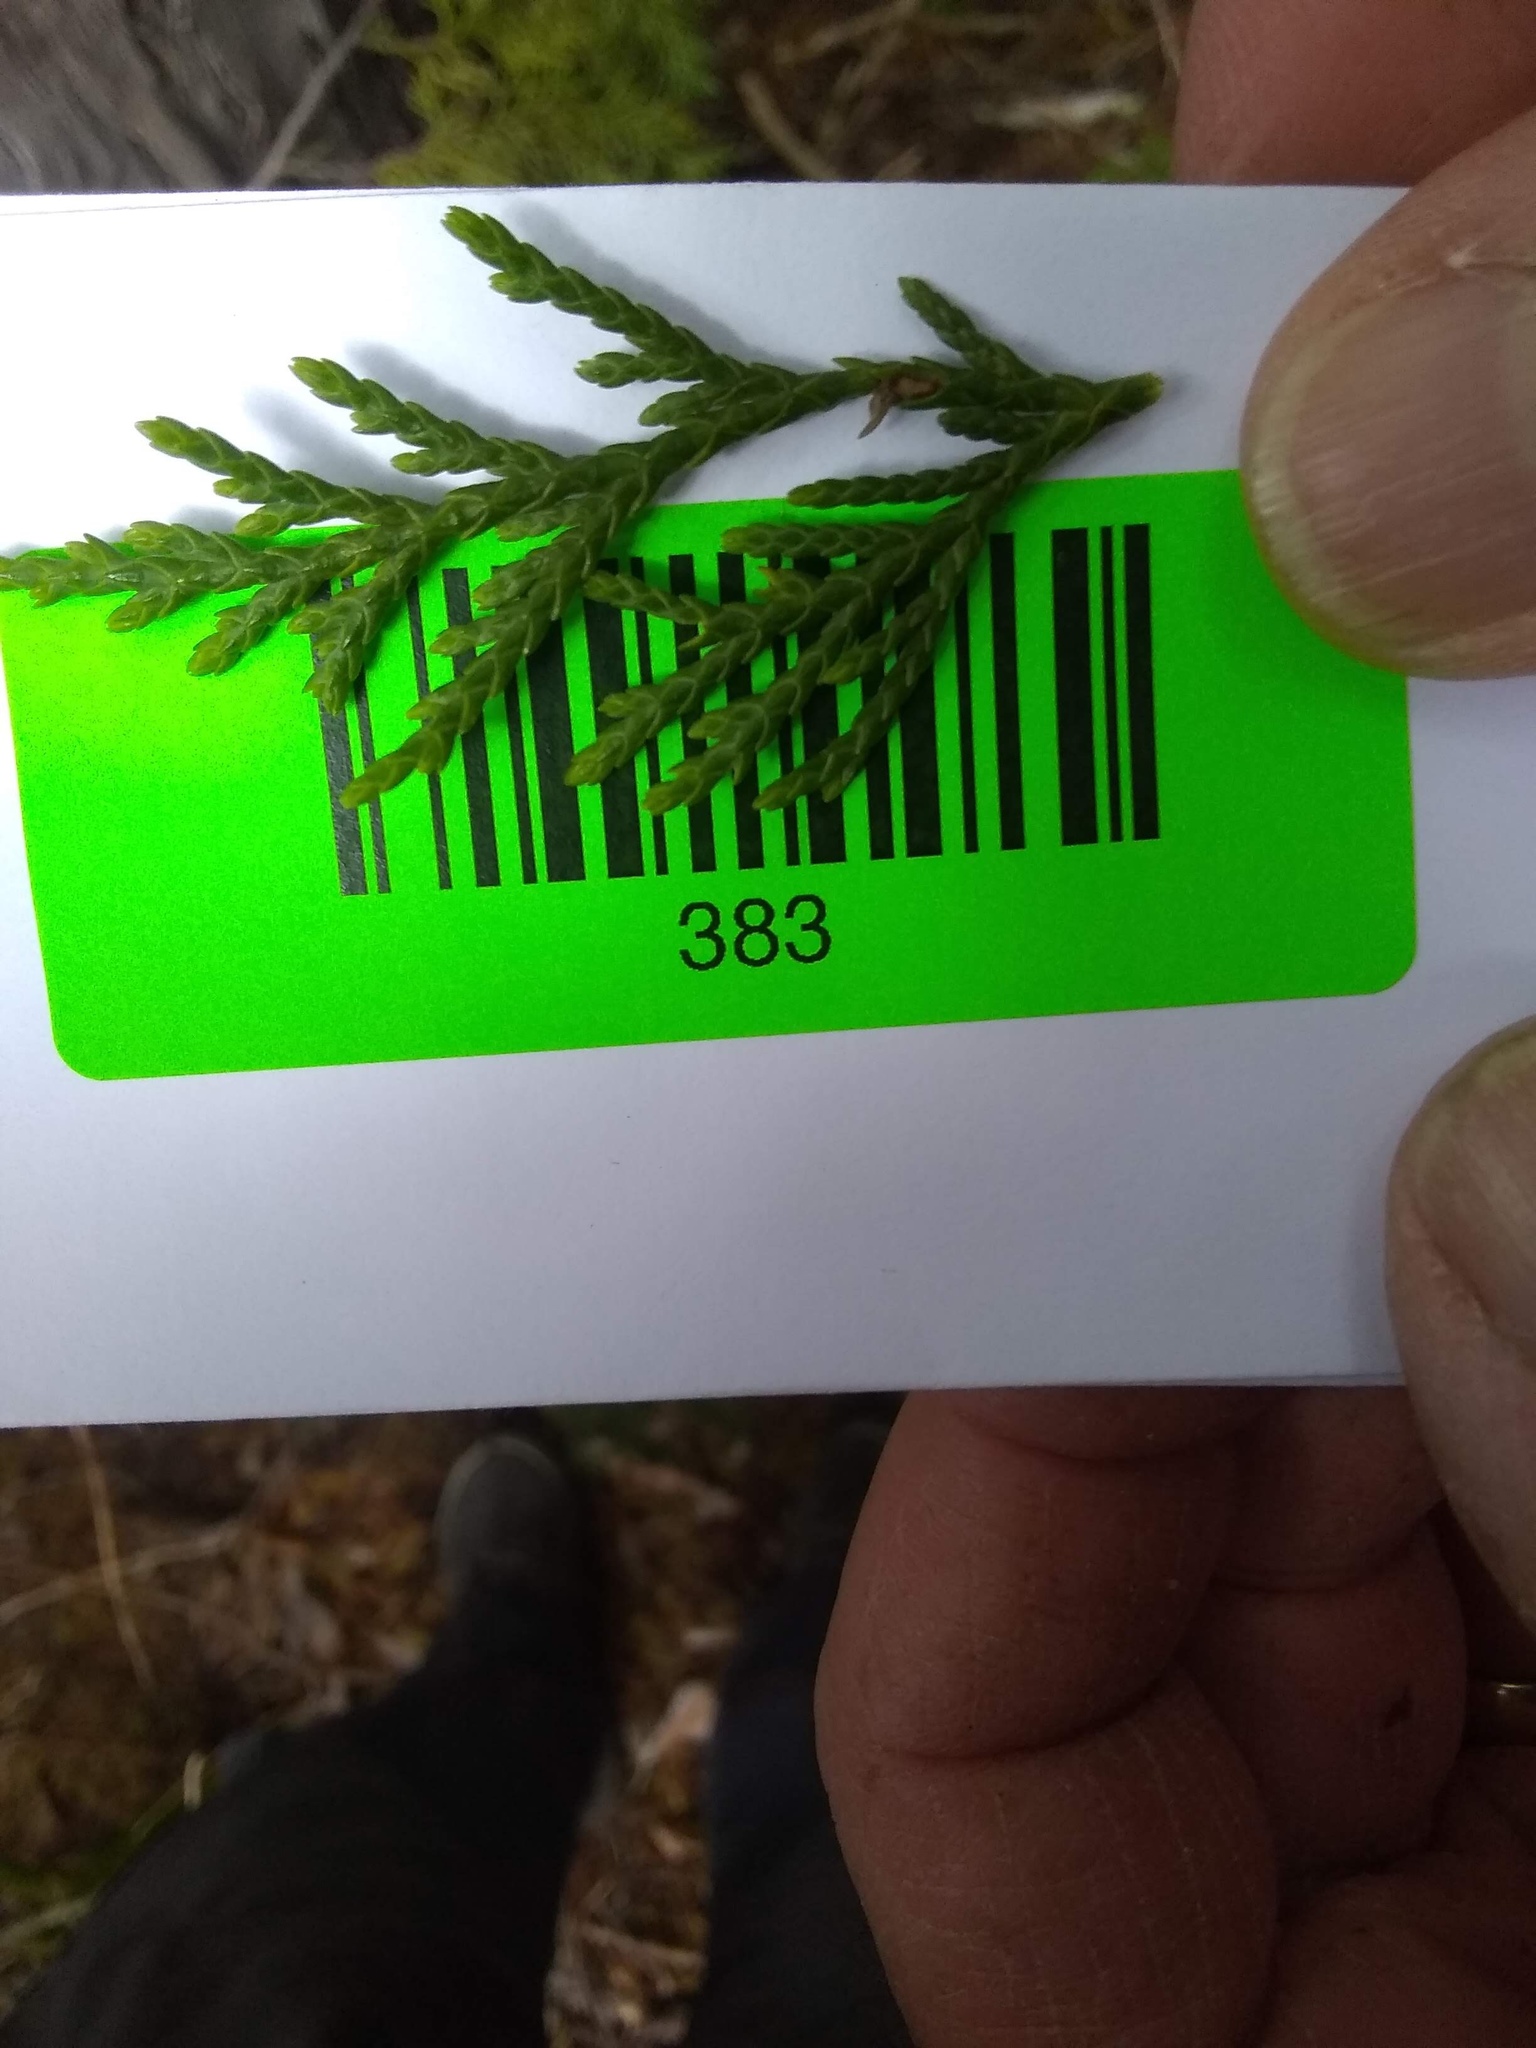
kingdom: Plantae
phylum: Tracheophyta
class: Pinopsida
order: Pinales
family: Cupressaceae
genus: Xanthocyparis
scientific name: Xanthocyparis nootkatensis
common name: Nootka cypress
